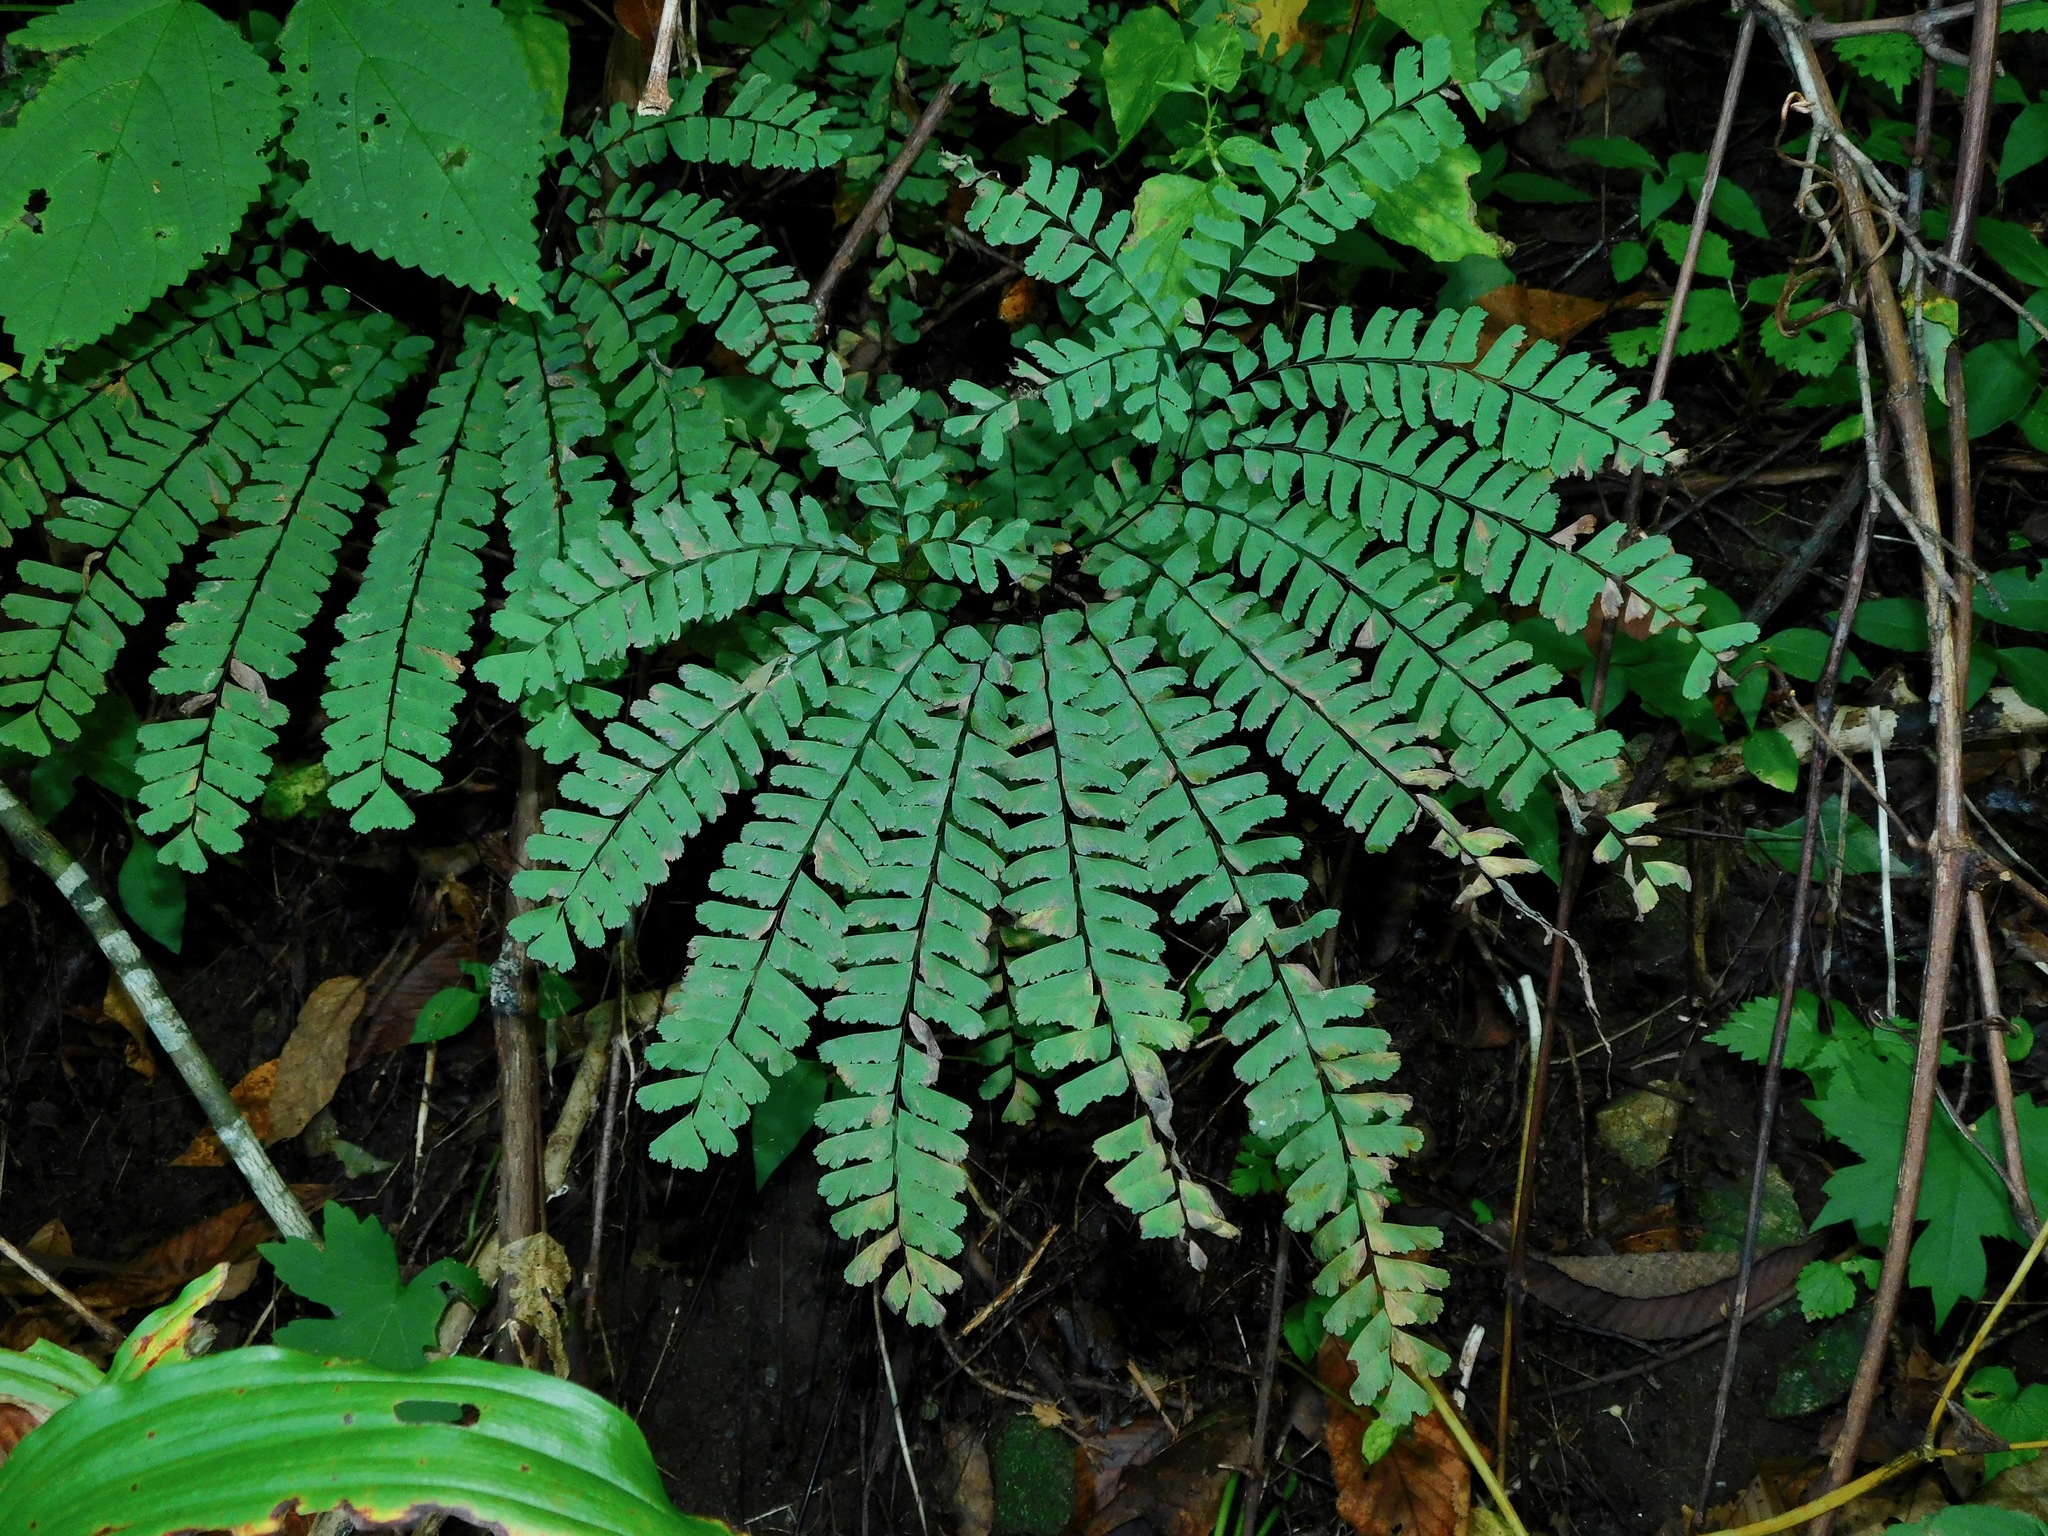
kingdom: Plantae
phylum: Tracheophyta
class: Polypodiopsida
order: Polypodiales
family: Pteridaceae
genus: Adiantum
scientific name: Adiantum pedatum
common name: Five-finger fern
